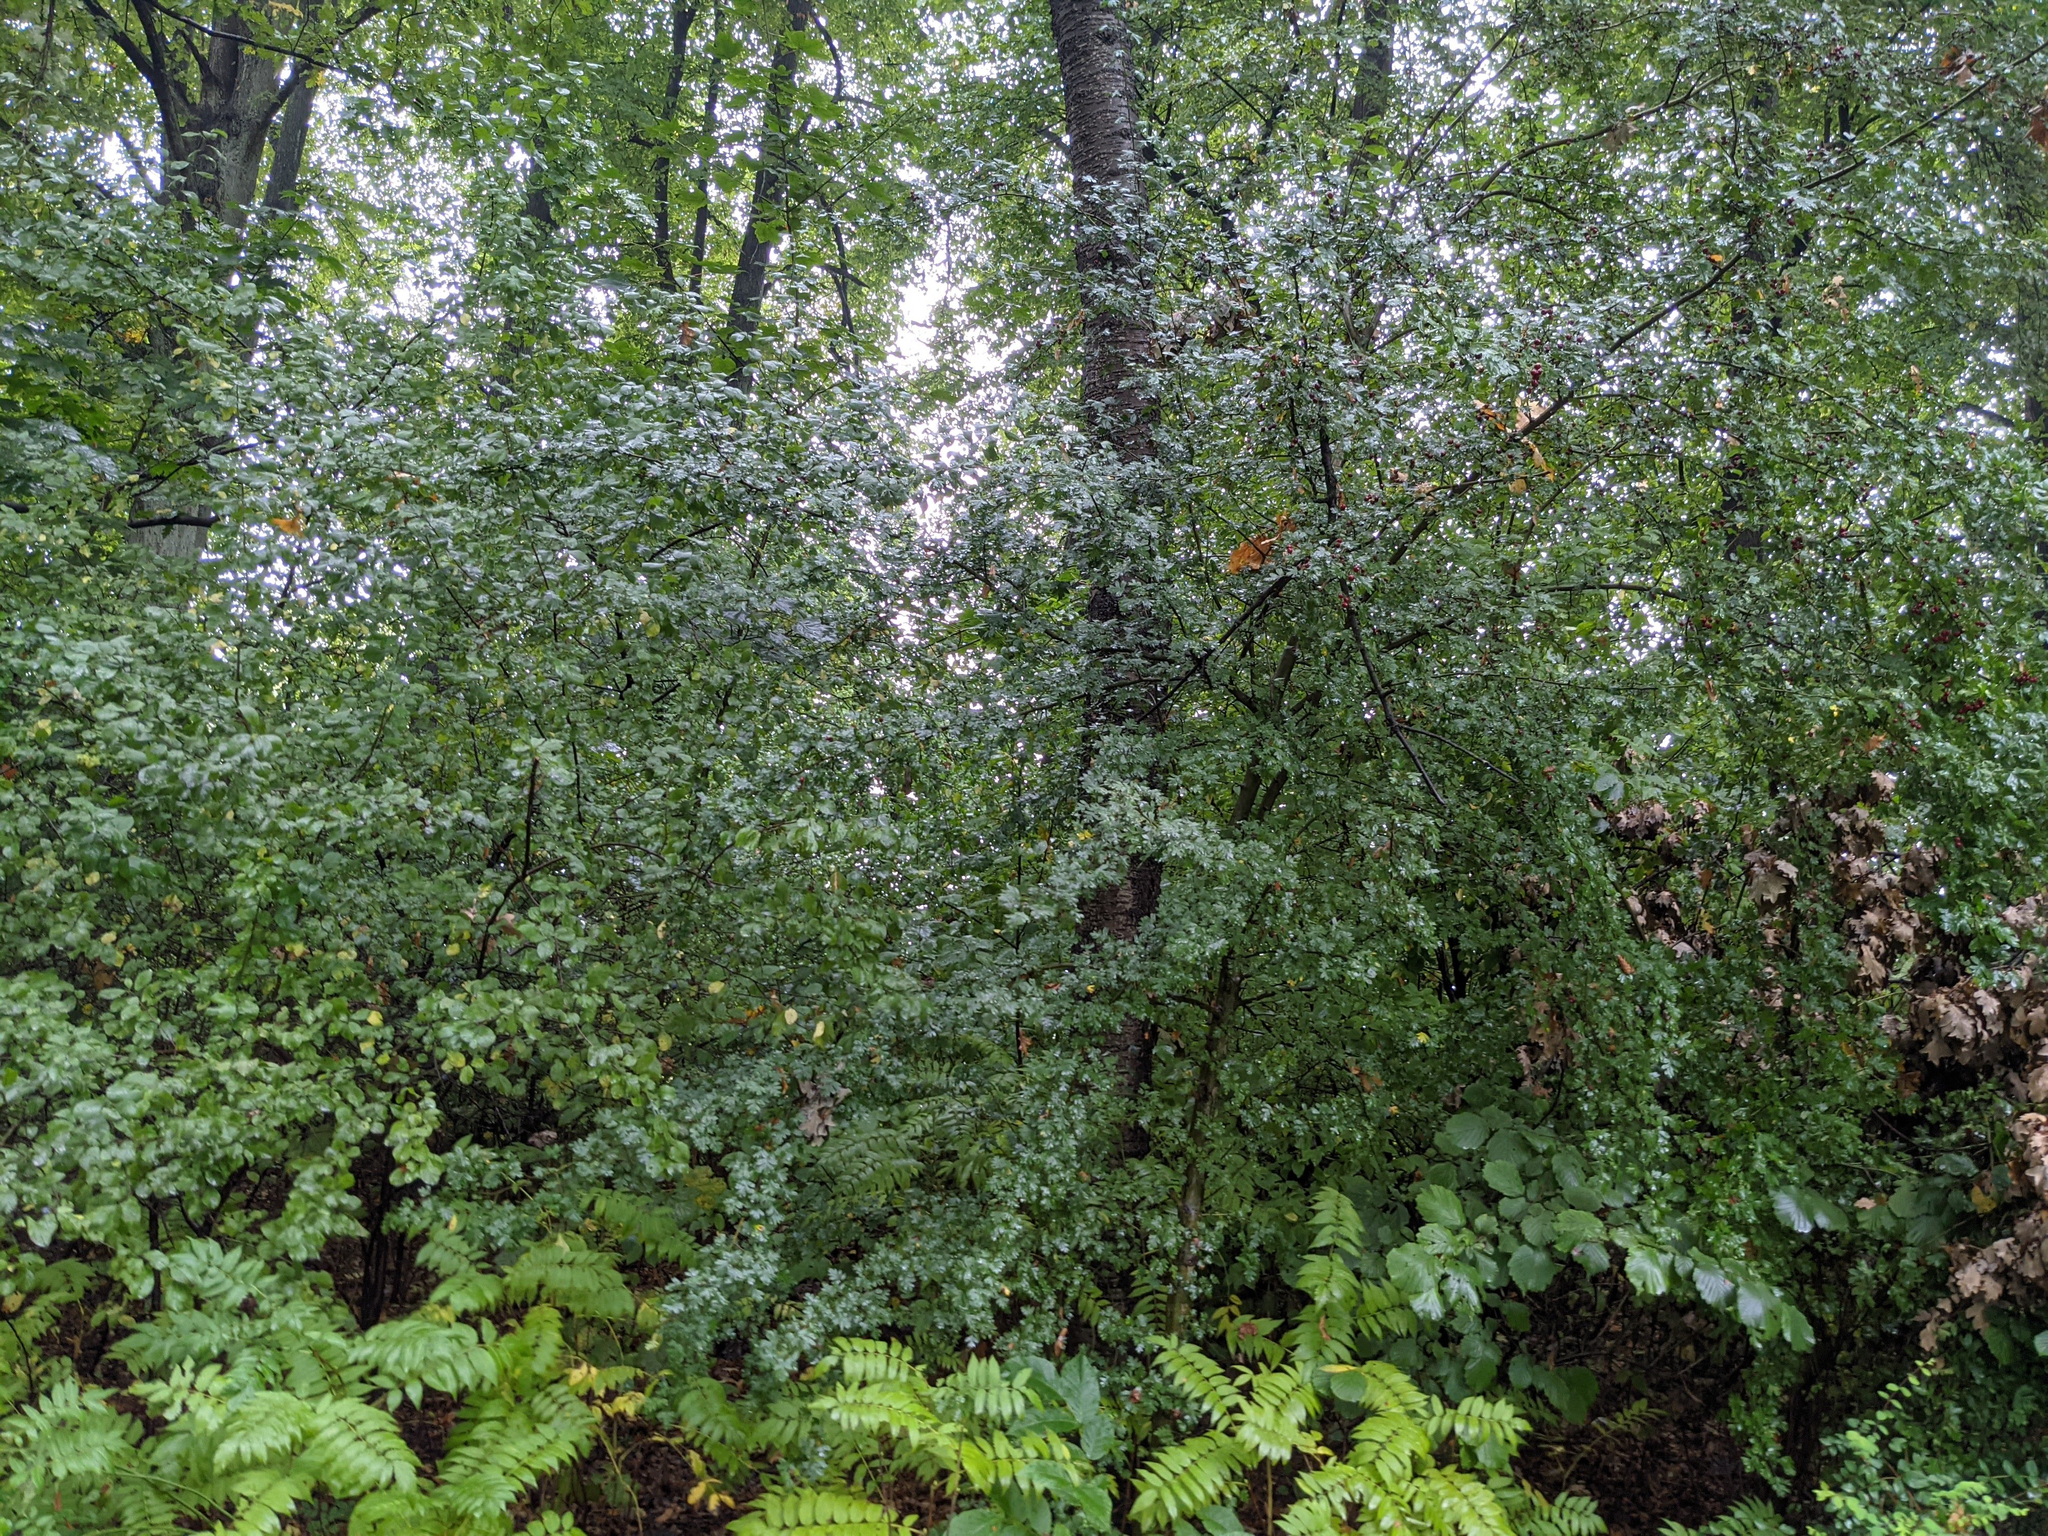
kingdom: Plantae
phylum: Tracheophyta
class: Magnoliopsida
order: Fagales
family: Juglandaceae
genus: Juglans
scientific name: Juglans regia
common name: Walnut
